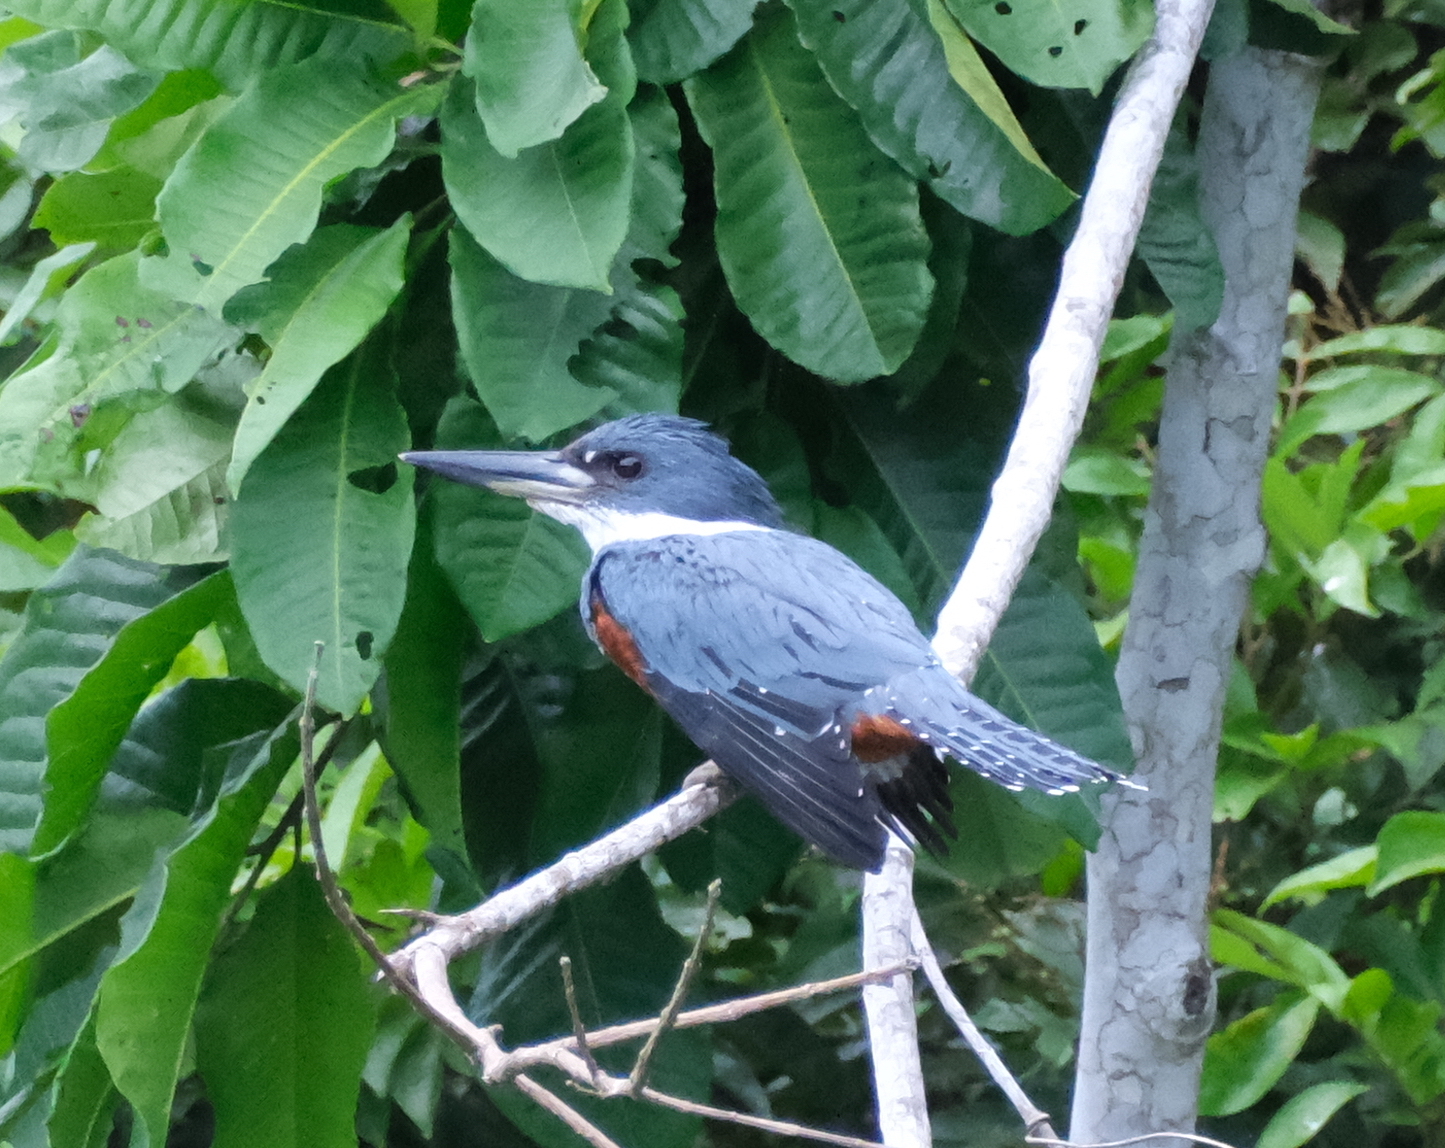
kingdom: Animalia
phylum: Chordata
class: Aves
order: Coraciiformes
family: Alcedinidae
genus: Megaceryle
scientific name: Megaceryle torquata
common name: Ringed kingfisher
